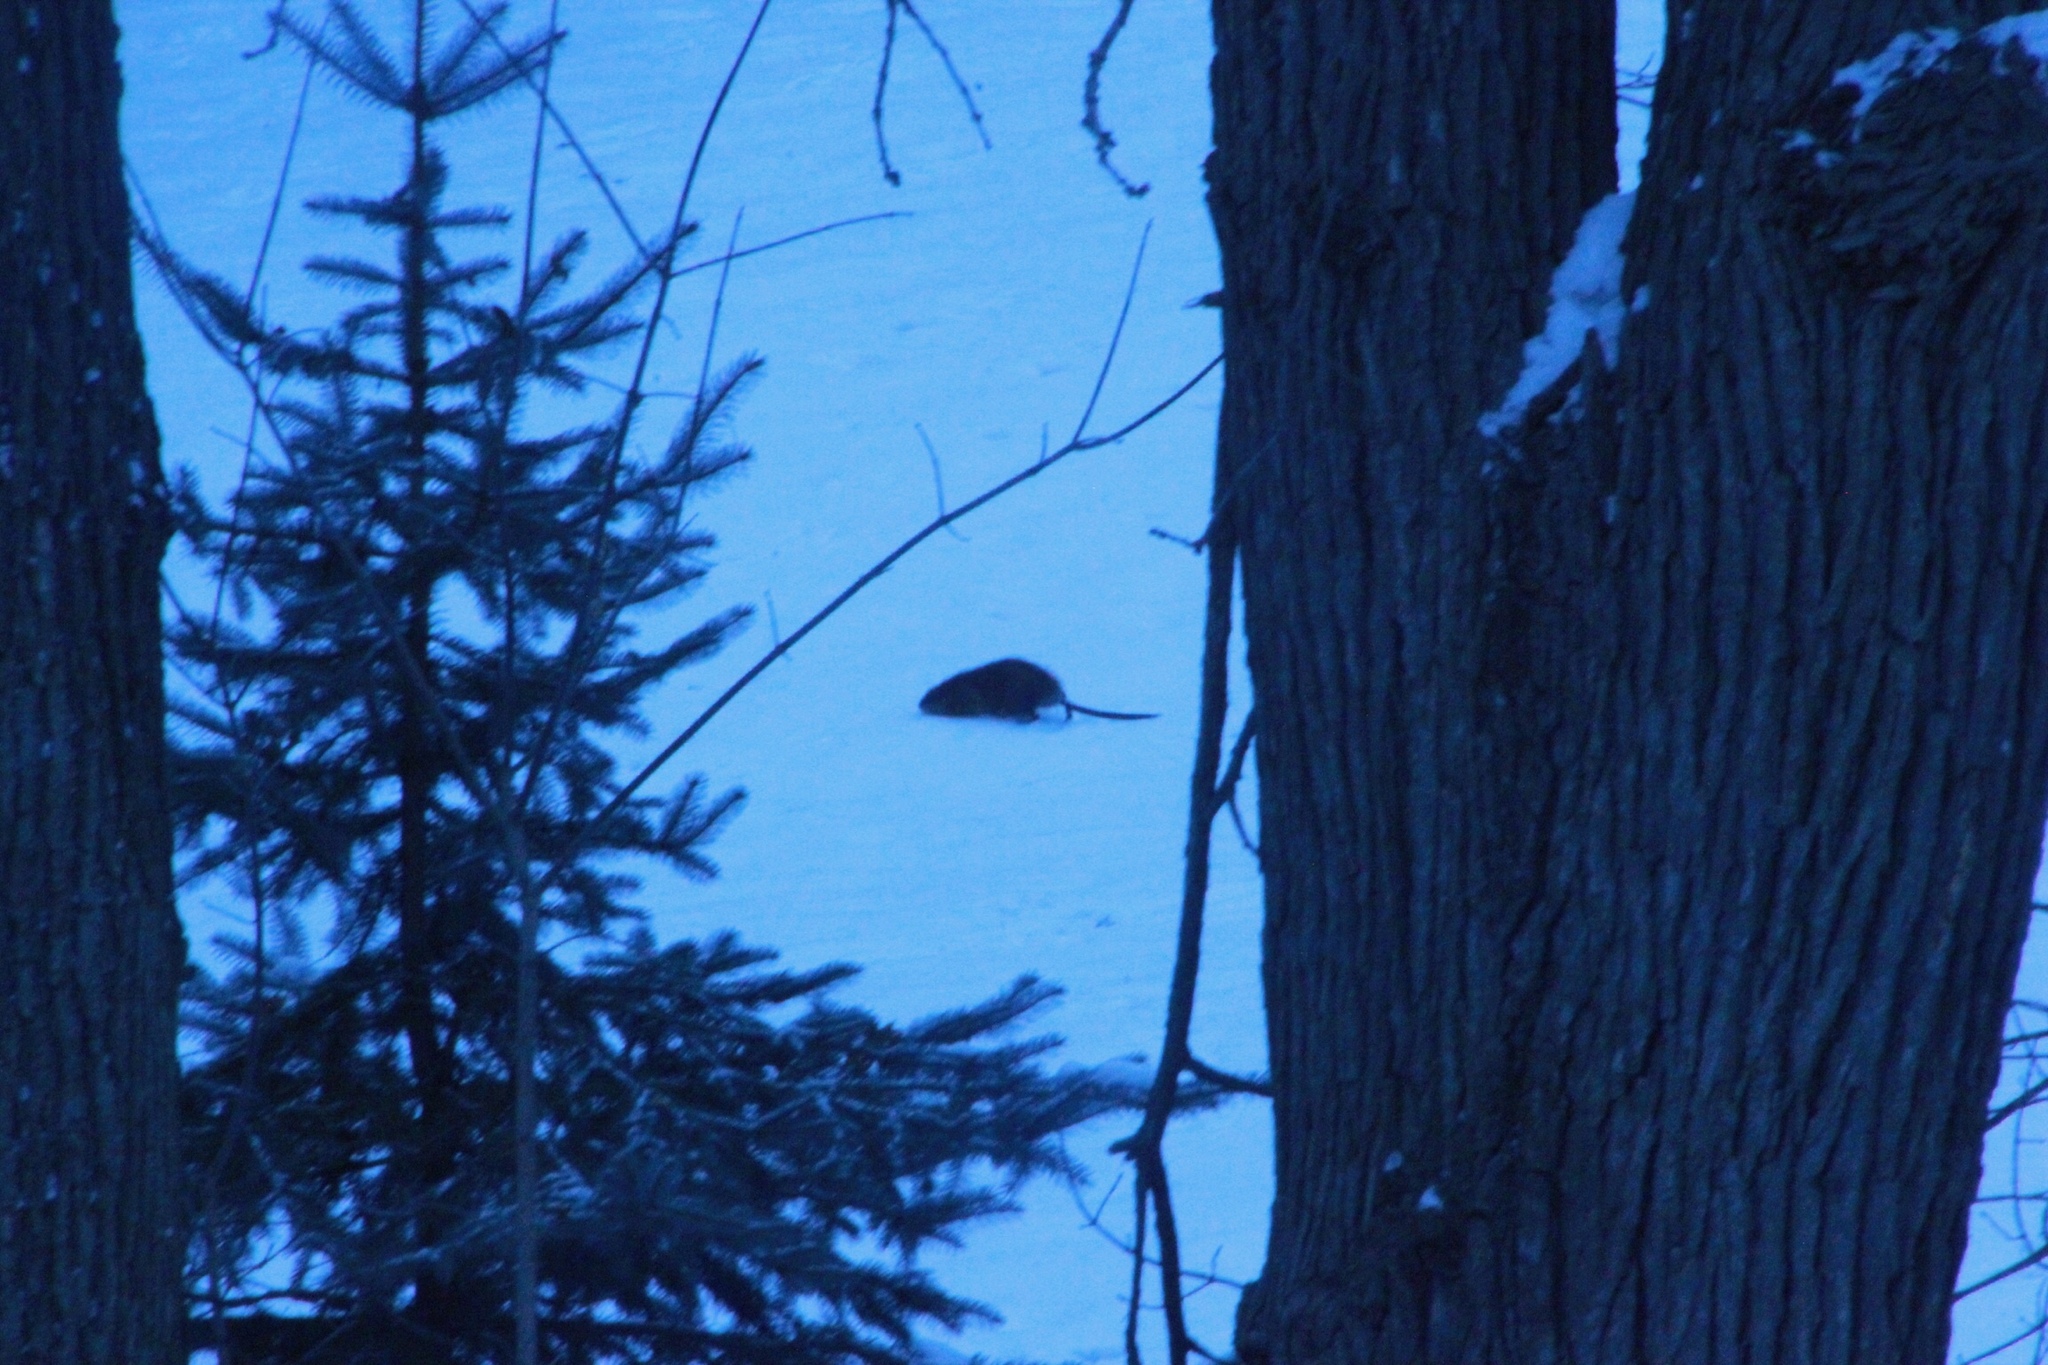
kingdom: Animalia
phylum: Chordata
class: Mammalia
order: Rodentia
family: Cricetidae
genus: Ondatra
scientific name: Ondatra zibethicus
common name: Muskrat
